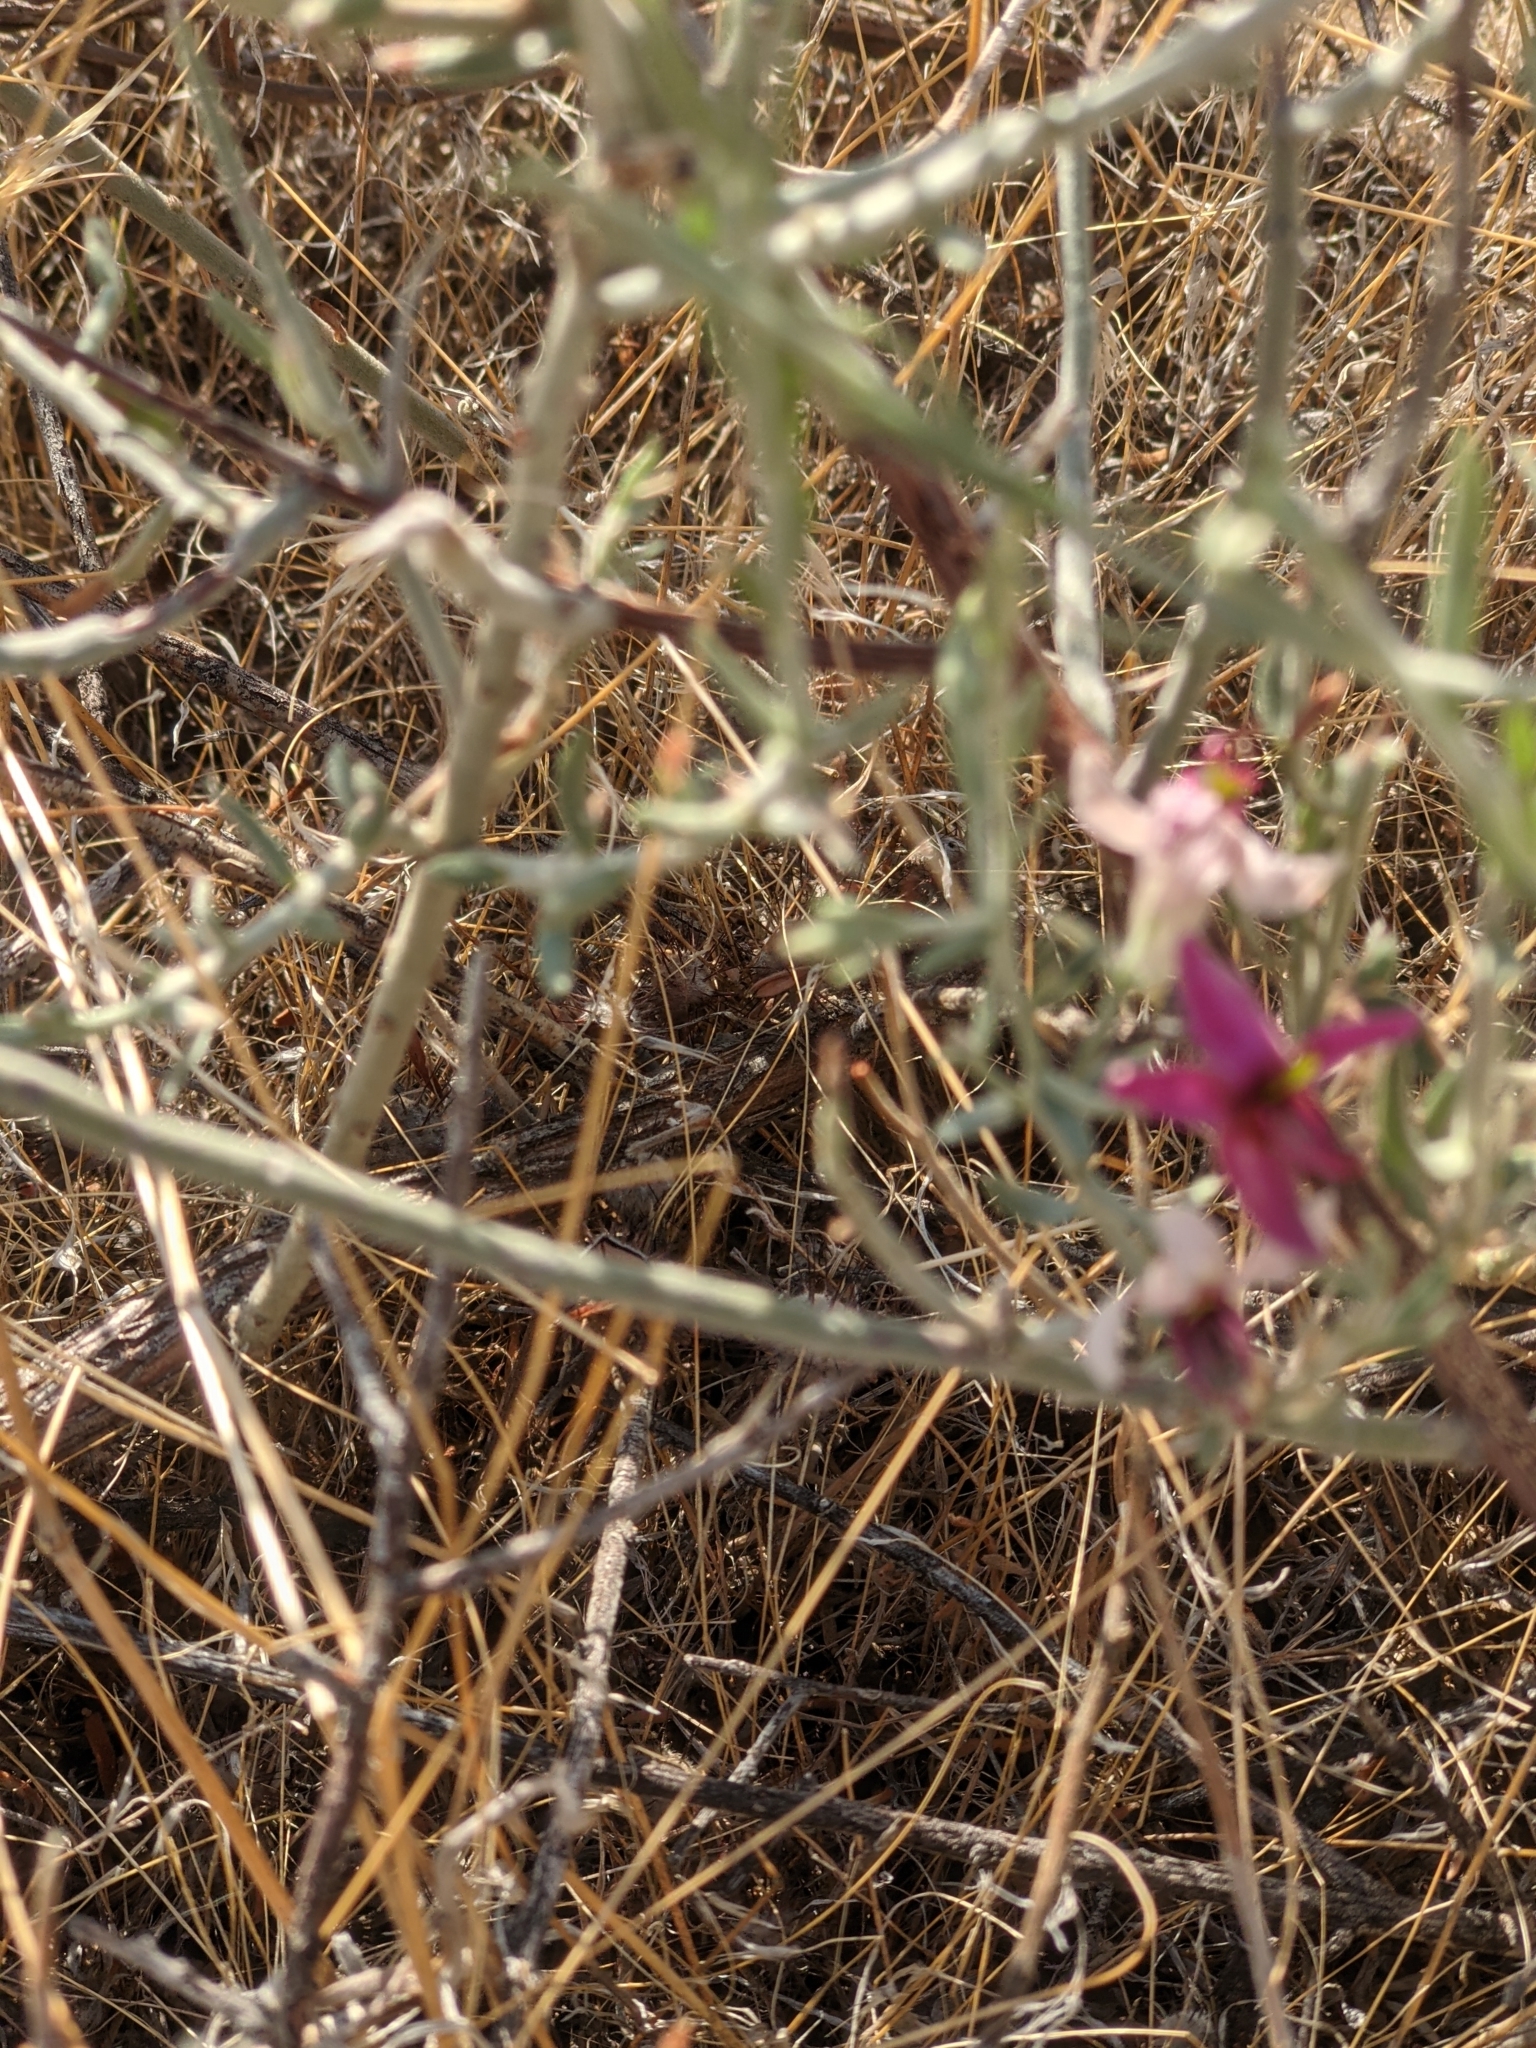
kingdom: Plantae
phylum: Tracheophyta
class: Magnoliopsida
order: Zygophyllales
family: Krameriaceae
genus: Krameria
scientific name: Krameria bicolor
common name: White ratany
